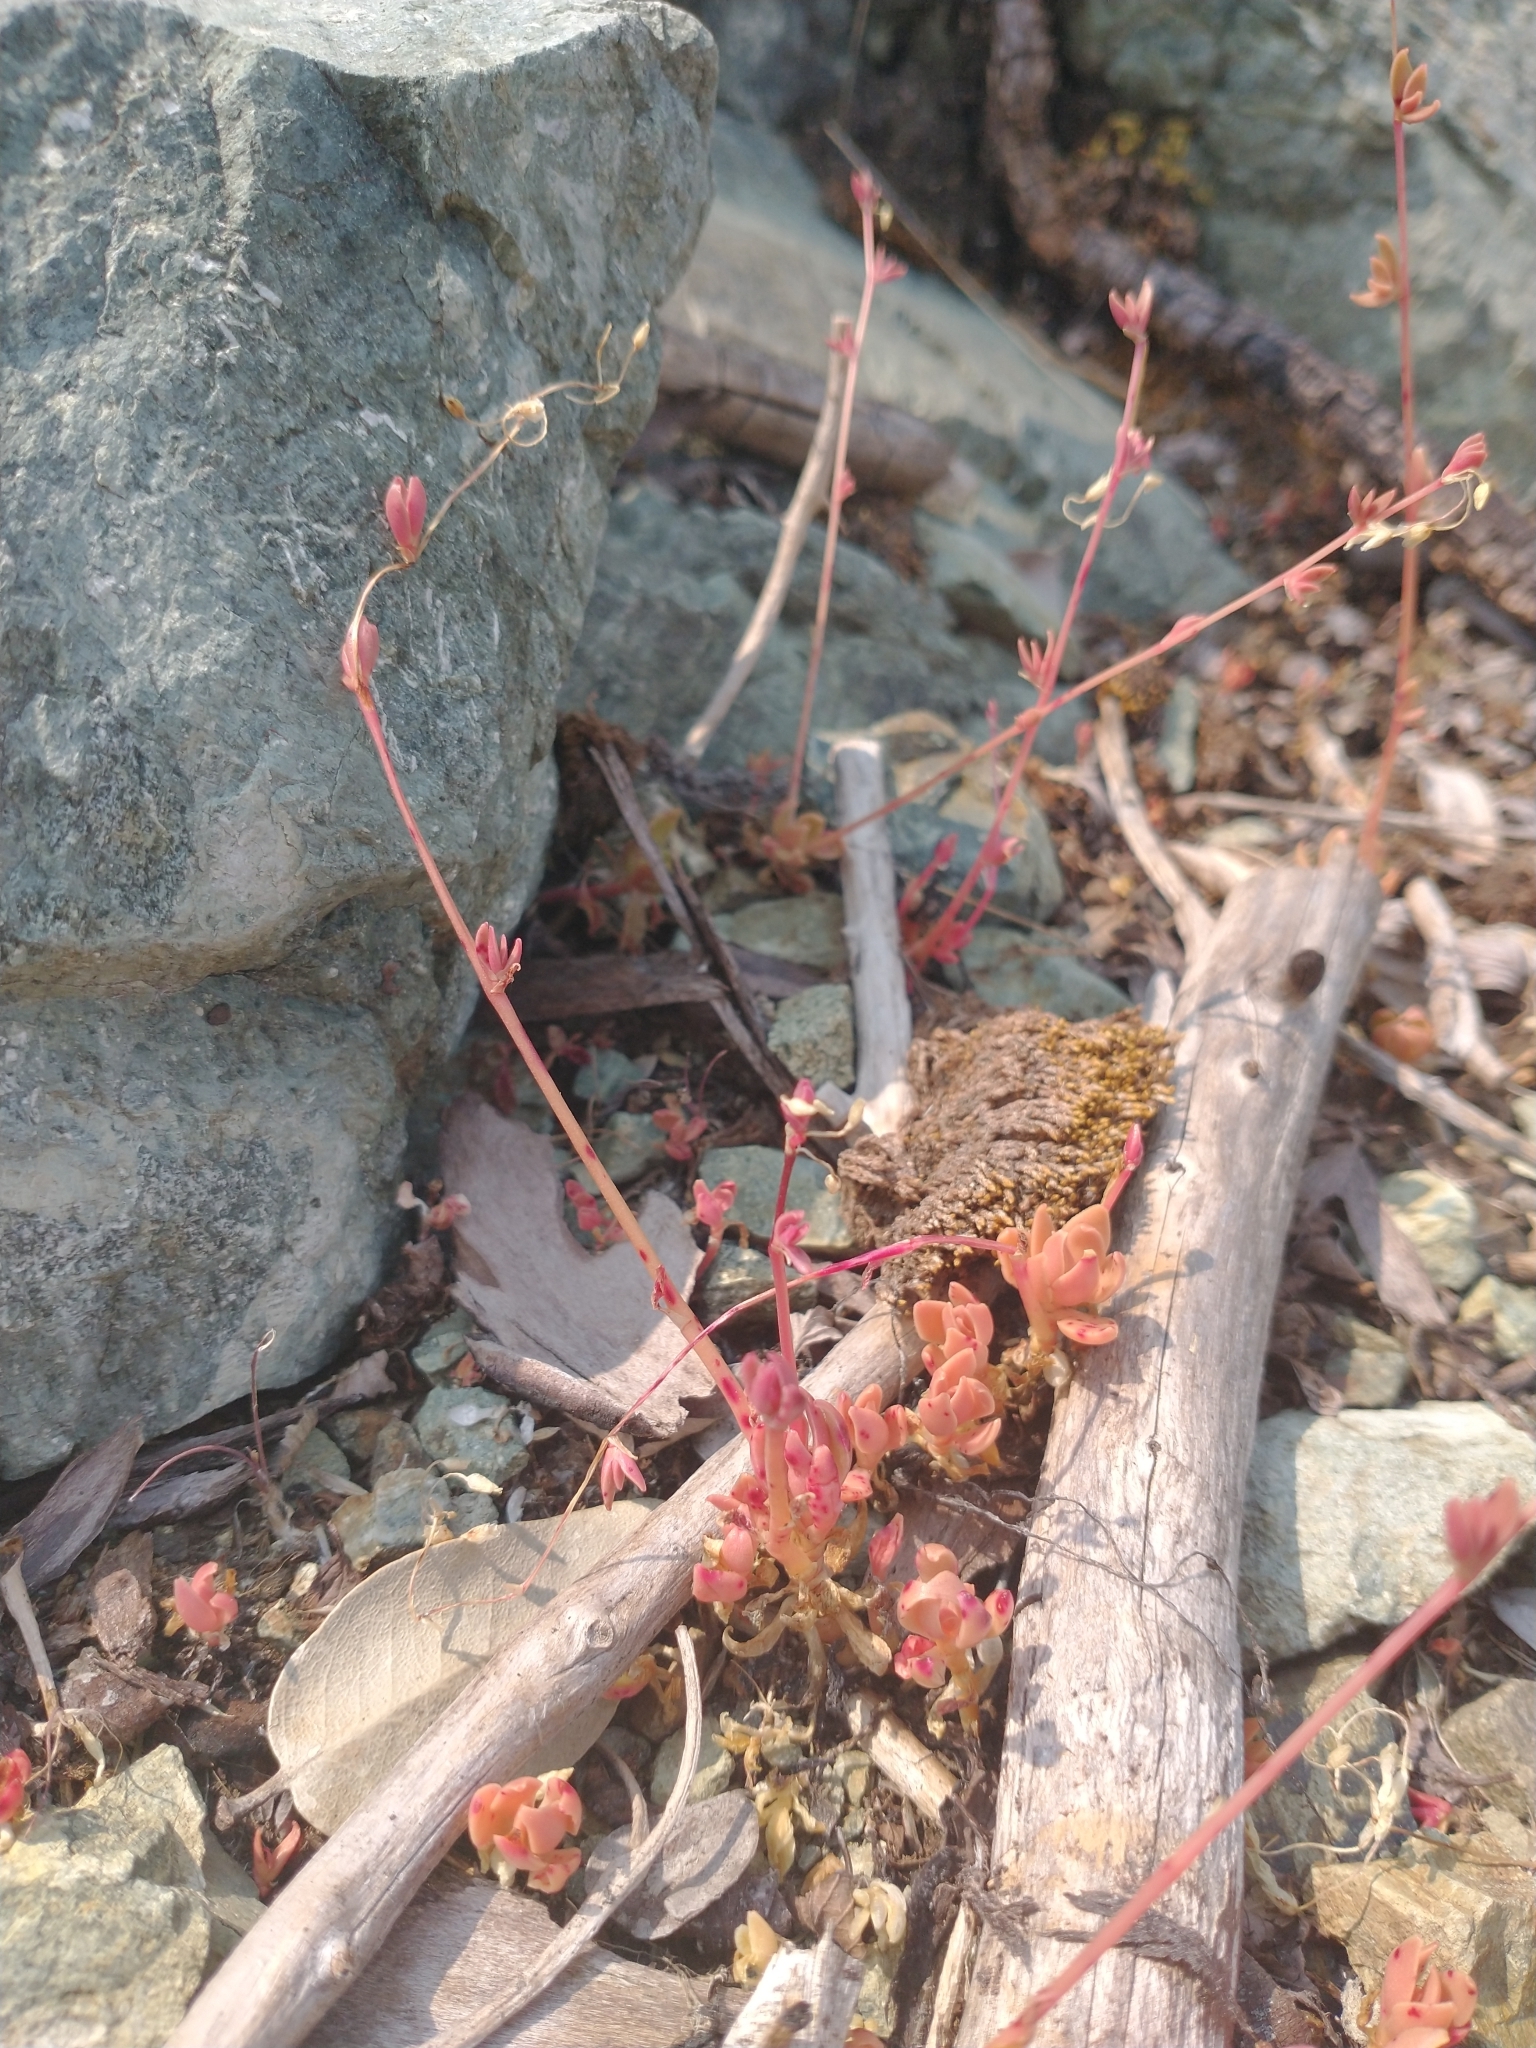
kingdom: Plantae
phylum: Tracheophyta
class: Magnoliopsida
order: Caryophyllales
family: Montiaceae
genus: Montia
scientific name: Montia parvifolia
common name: Small-leaved blinks
